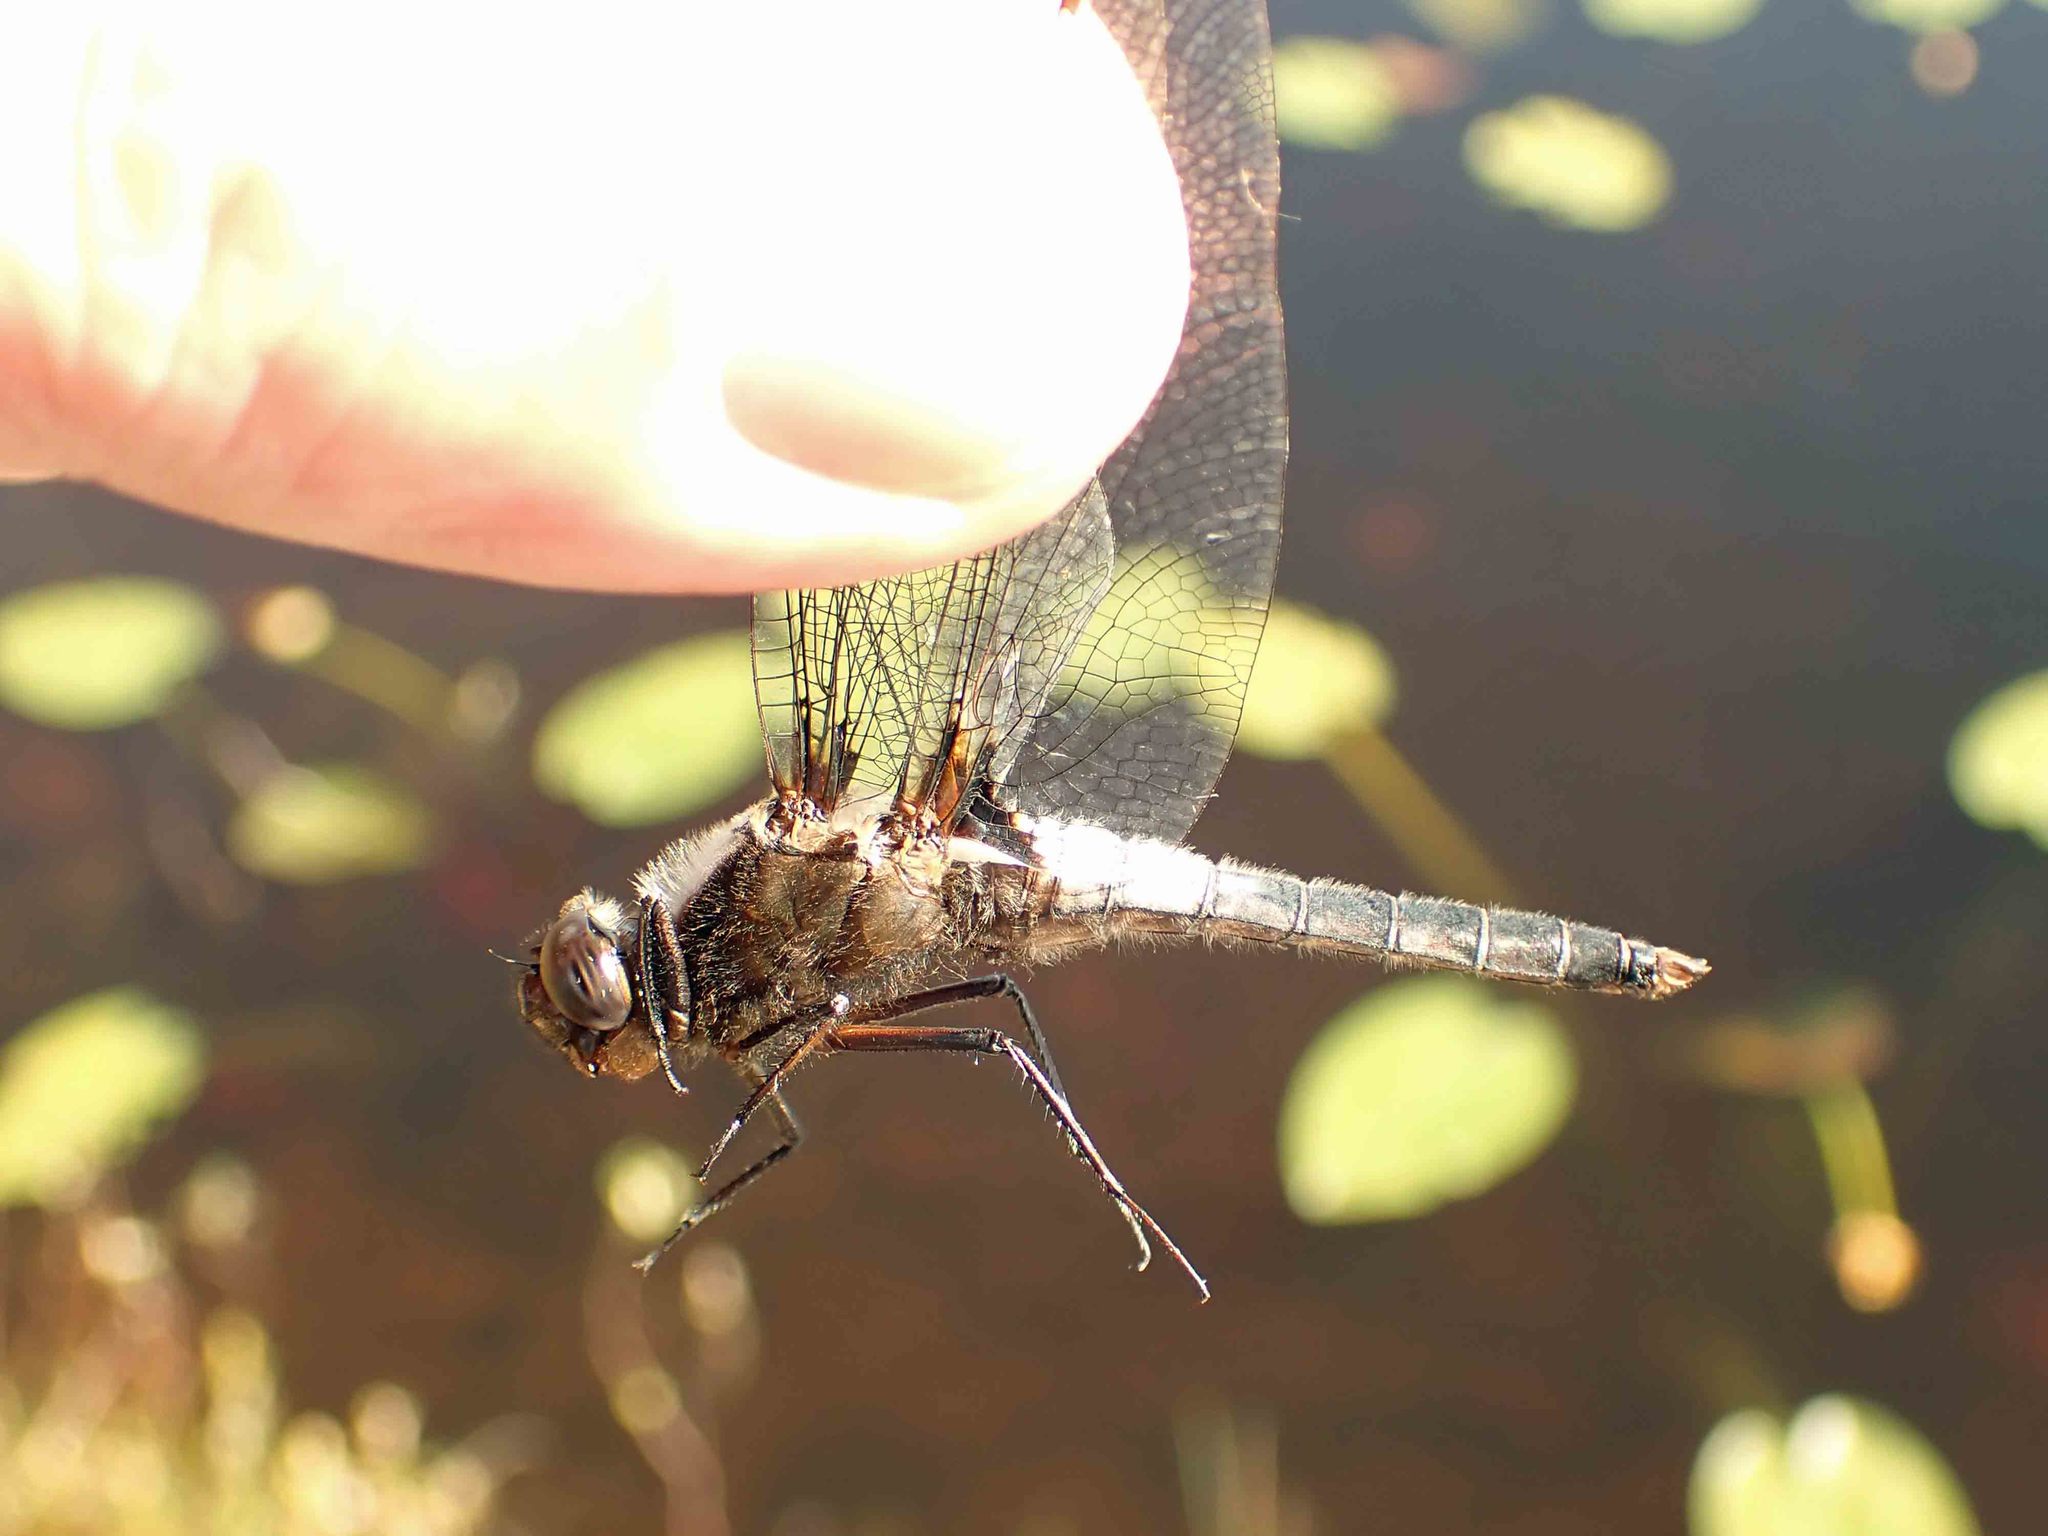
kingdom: Animalia
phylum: Arthropoda
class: Insecta
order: Odonata
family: Libellulidae
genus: Ladona
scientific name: Ladona julia
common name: Chalk-fronted corporal
